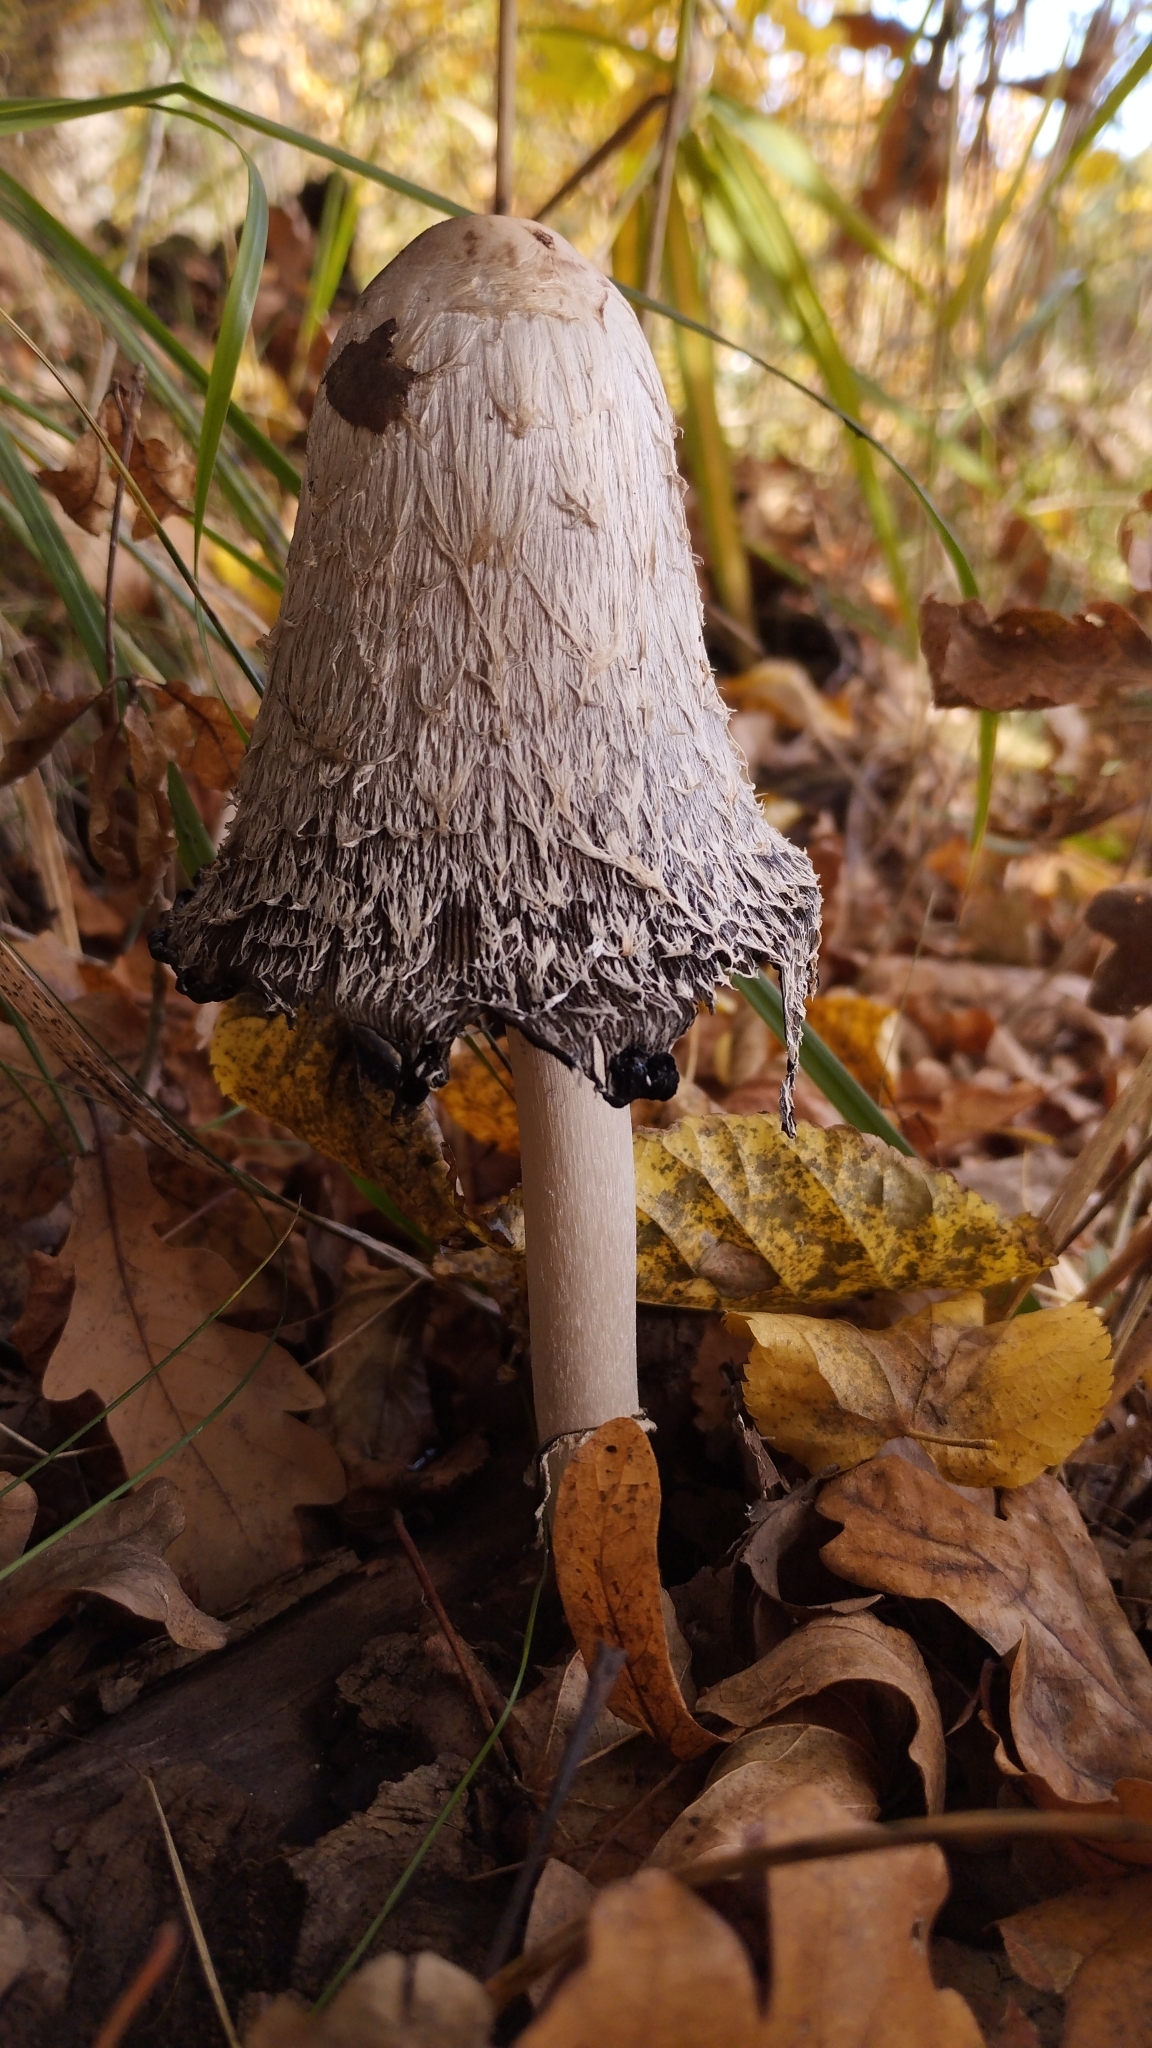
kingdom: Fungi
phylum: Basidiomycota
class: Agaricomycetes
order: Agaricales
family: Agaricaceae
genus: Coprinus
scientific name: Coprinus comatus
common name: Lawyer's wig
